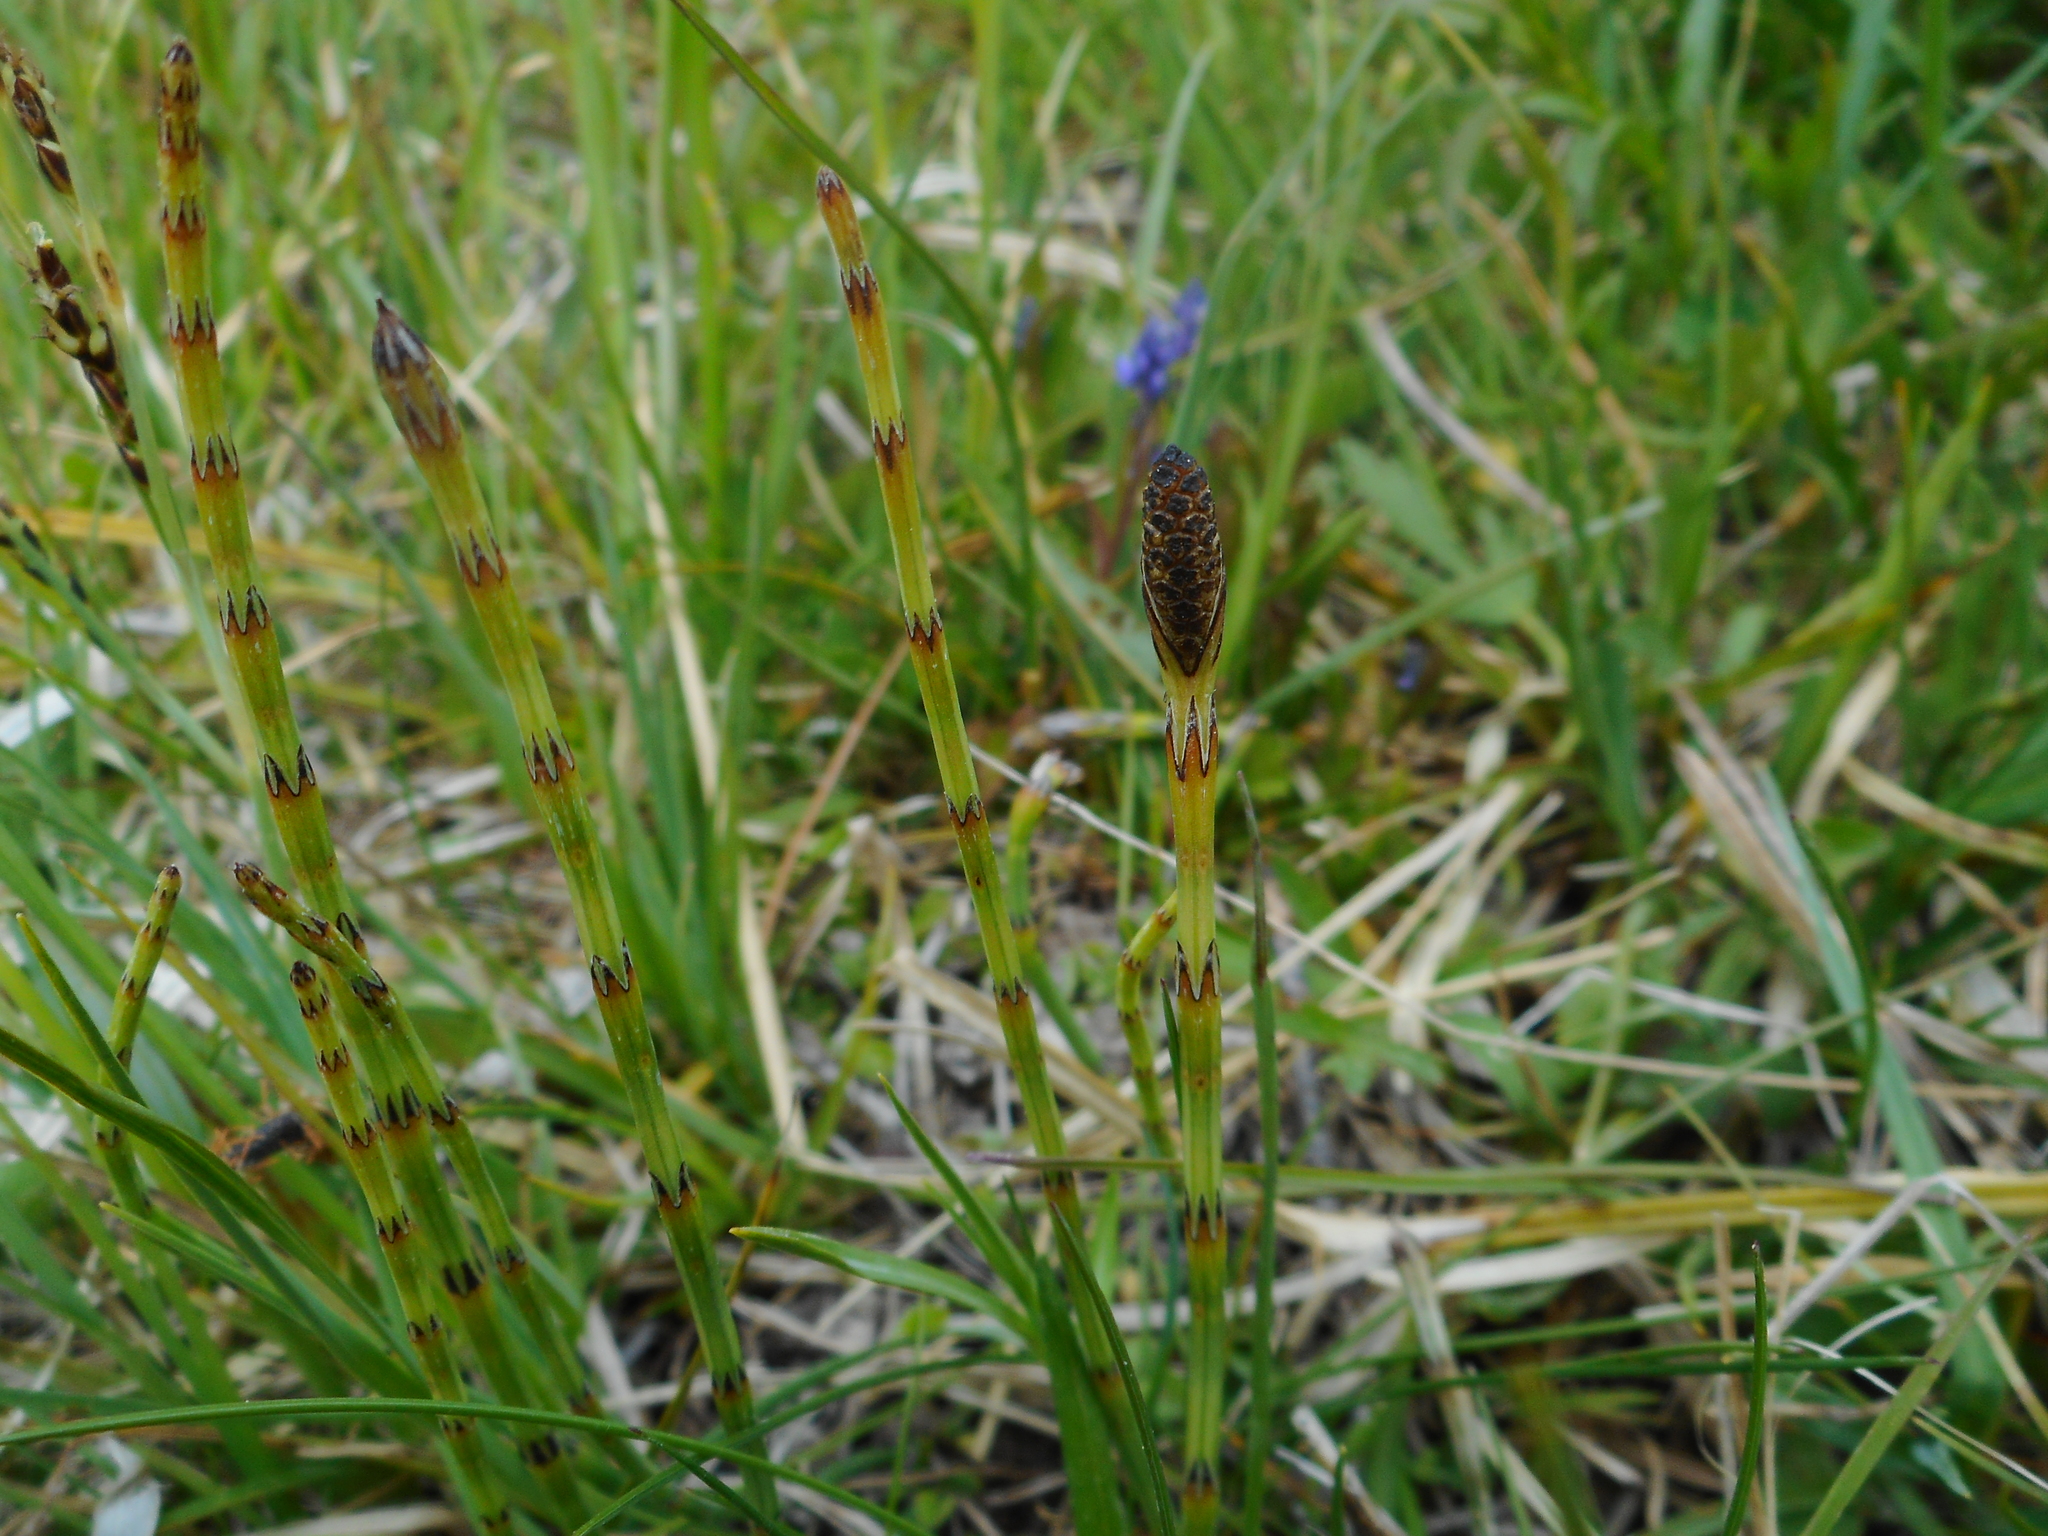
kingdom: Plantae
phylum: Tracheophyta
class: Polypodiopsida
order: Equisetales
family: Equisetaceae
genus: Equisetum
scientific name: Equisetum palustre
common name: Marsh horsetail
